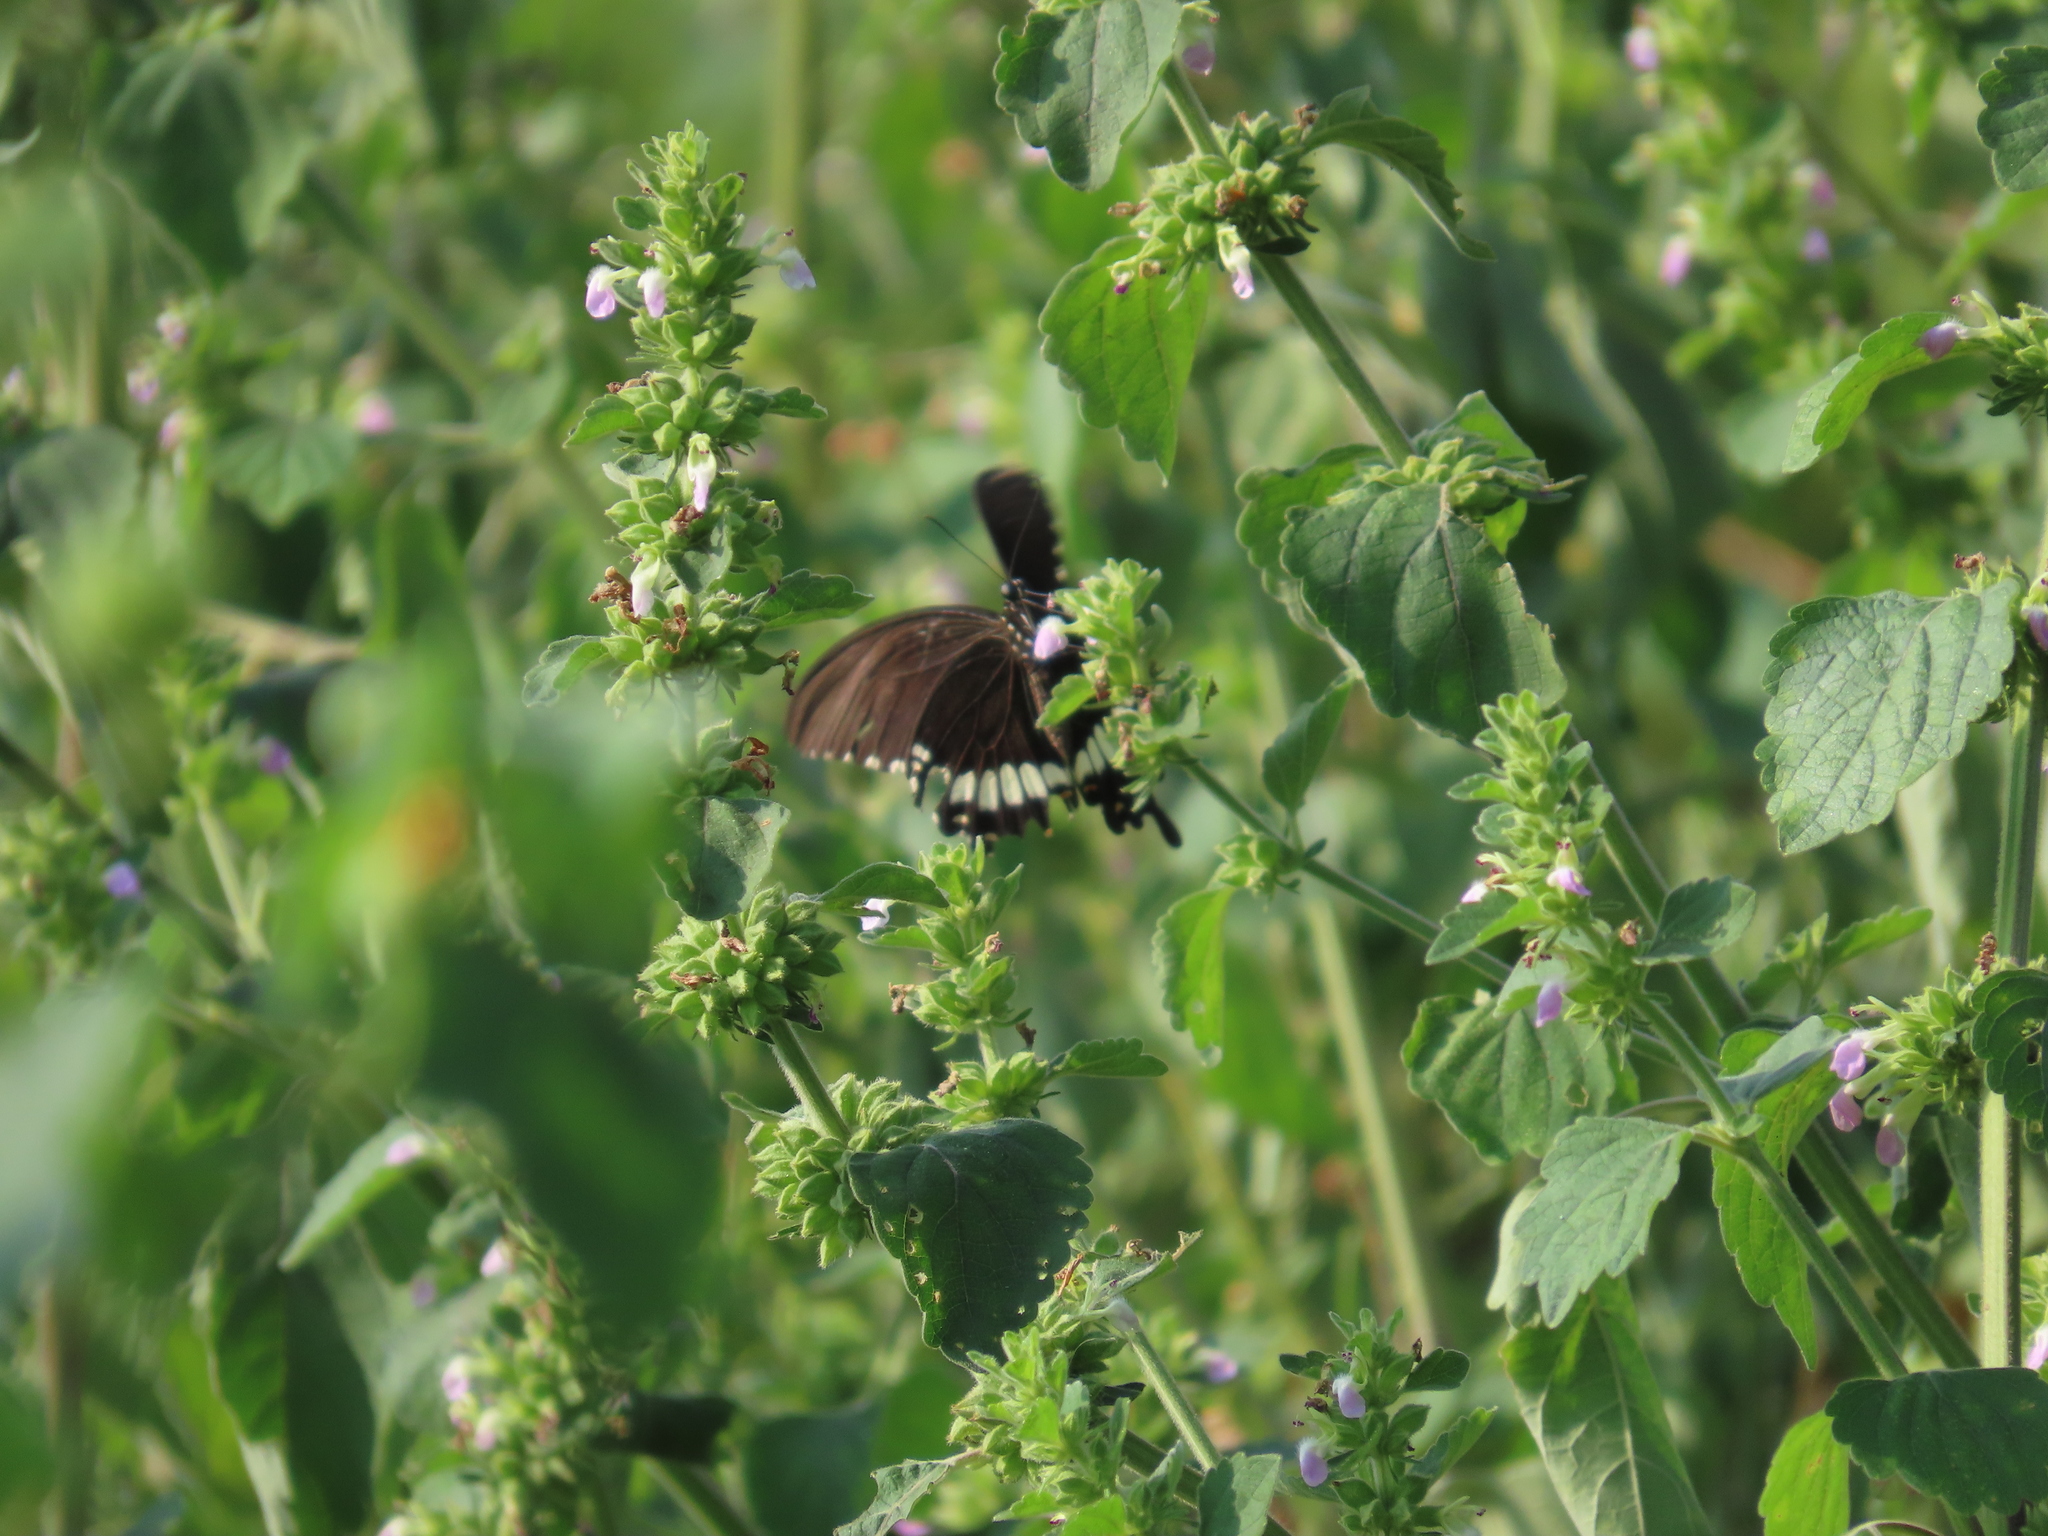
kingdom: Animalia
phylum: Arthropoda
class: Insecta
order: Lepidoptera
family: Papilionidae
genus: Papilio
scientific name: Papilio polytes
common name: Common mormon
